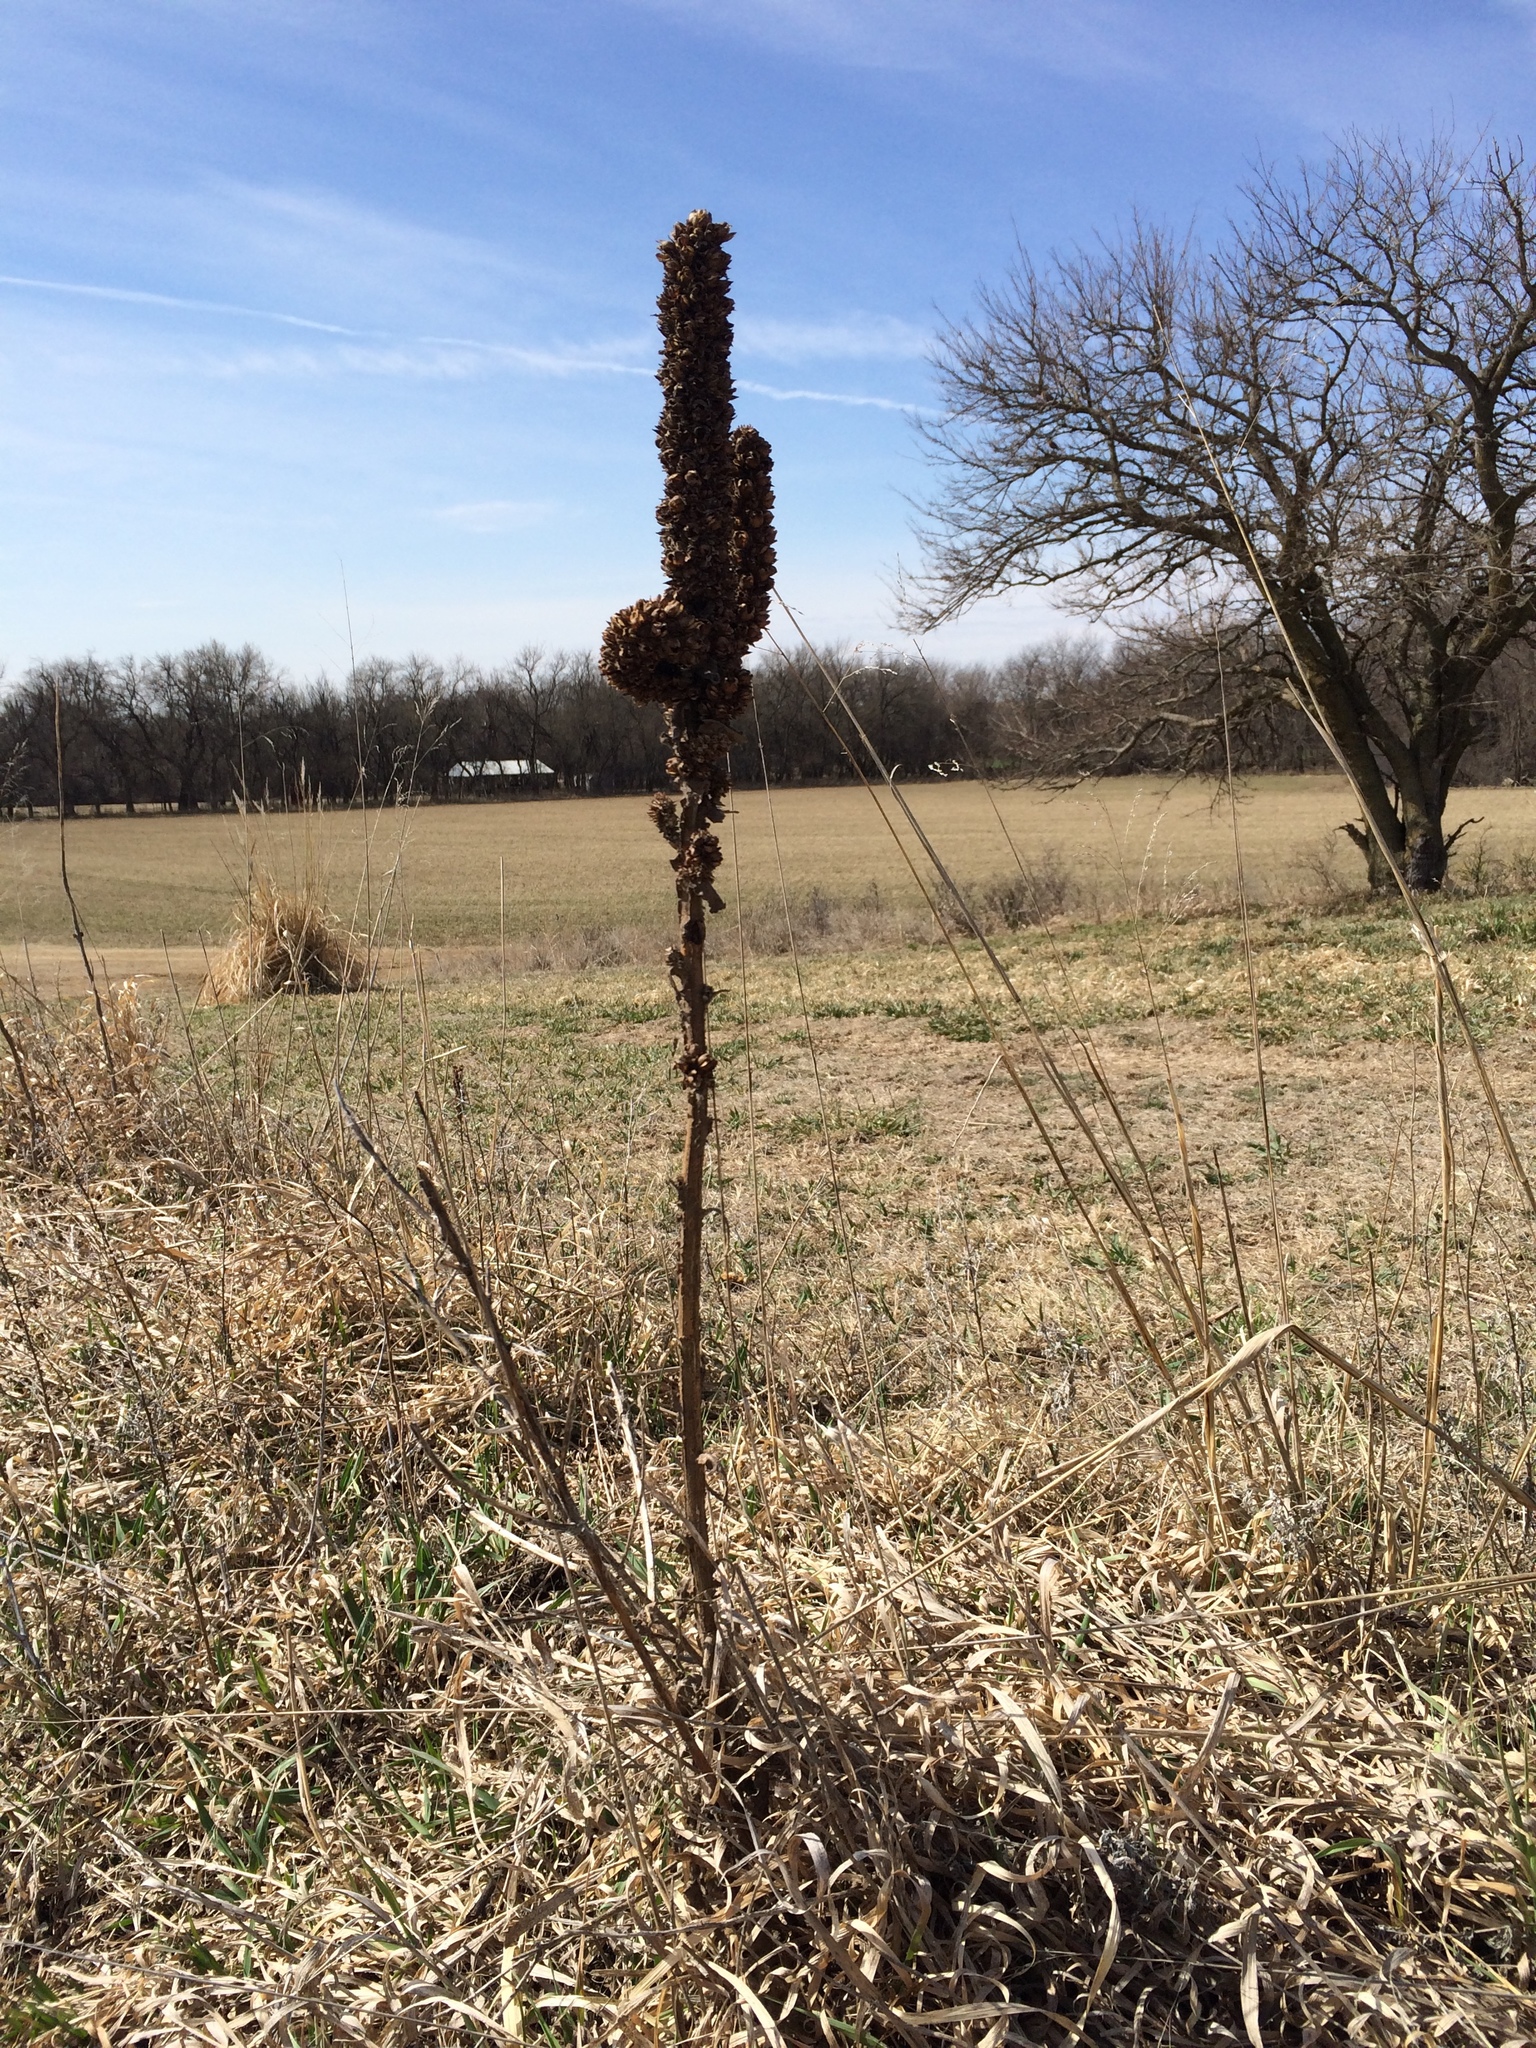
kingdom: Plantae
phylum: Tracheophyta
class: Magnoliopsida
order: Lamiales
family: Scrophulariaceae
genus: Verbascum
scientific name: Verbascum thapsus
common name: Common mullein
